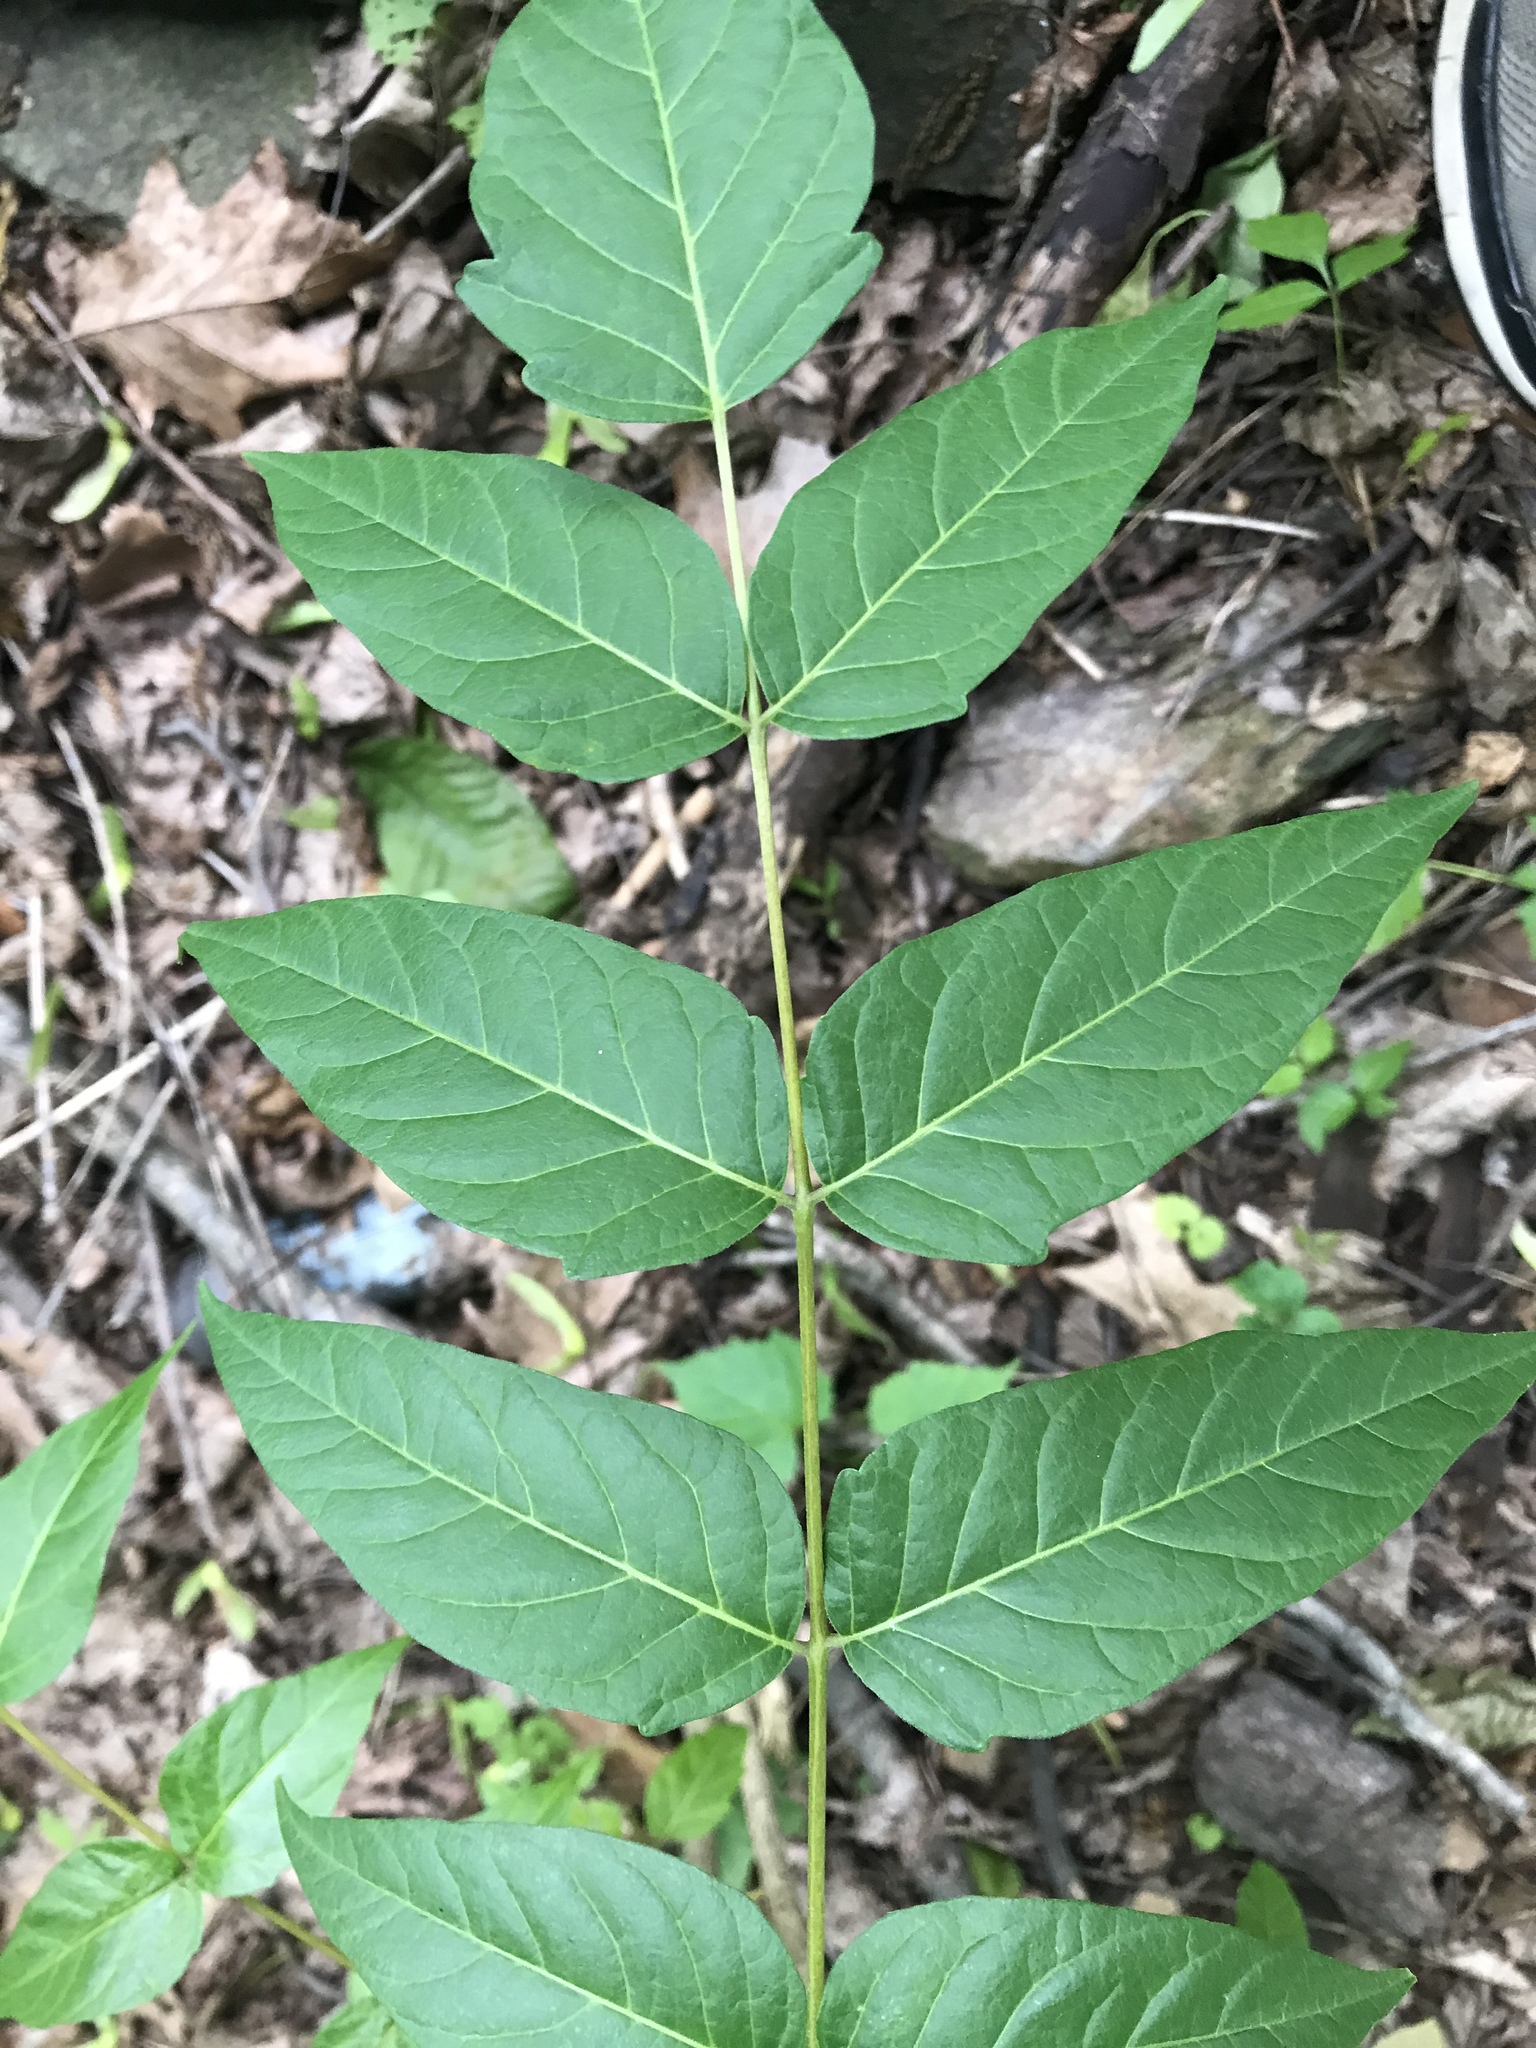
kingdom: Plantae
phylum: Tracheophyta
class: Magnoliopsida
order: Sapindales
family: Simaroubaceae
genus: Ailanthus
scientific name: Ailanthus altissima
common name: Tree-of-heaven
